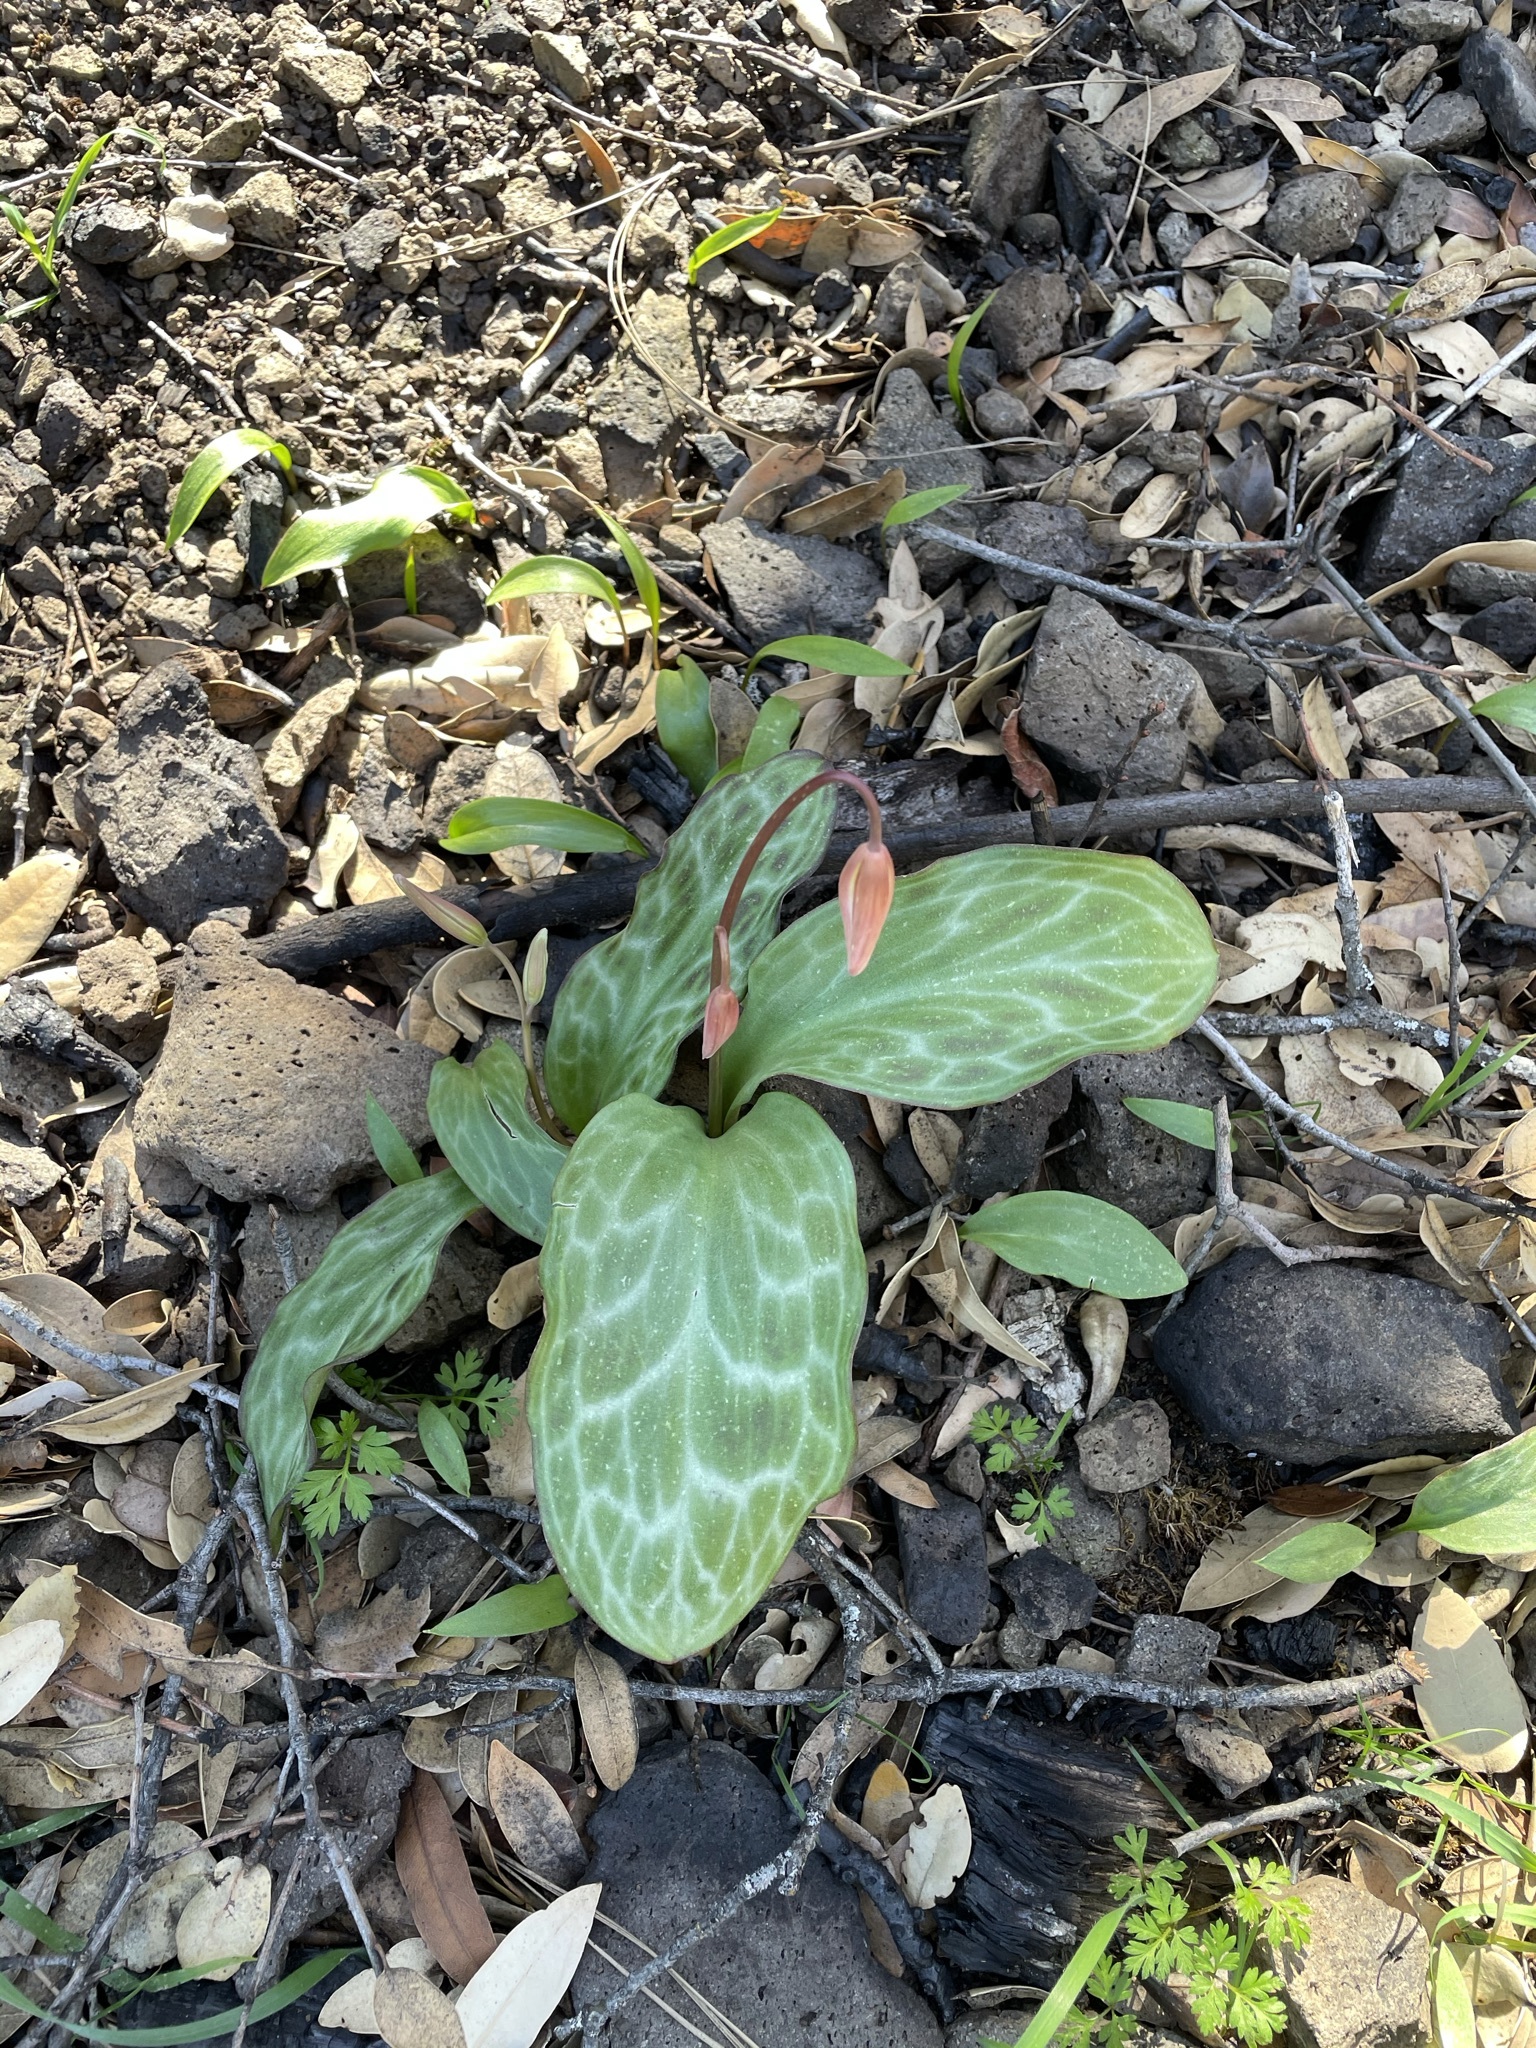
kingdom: Plantae
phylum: Tracheophyta
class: Liliopsida
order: Liliales
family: Liliaceae
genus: Erythronium
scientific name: Erythronium helenae
